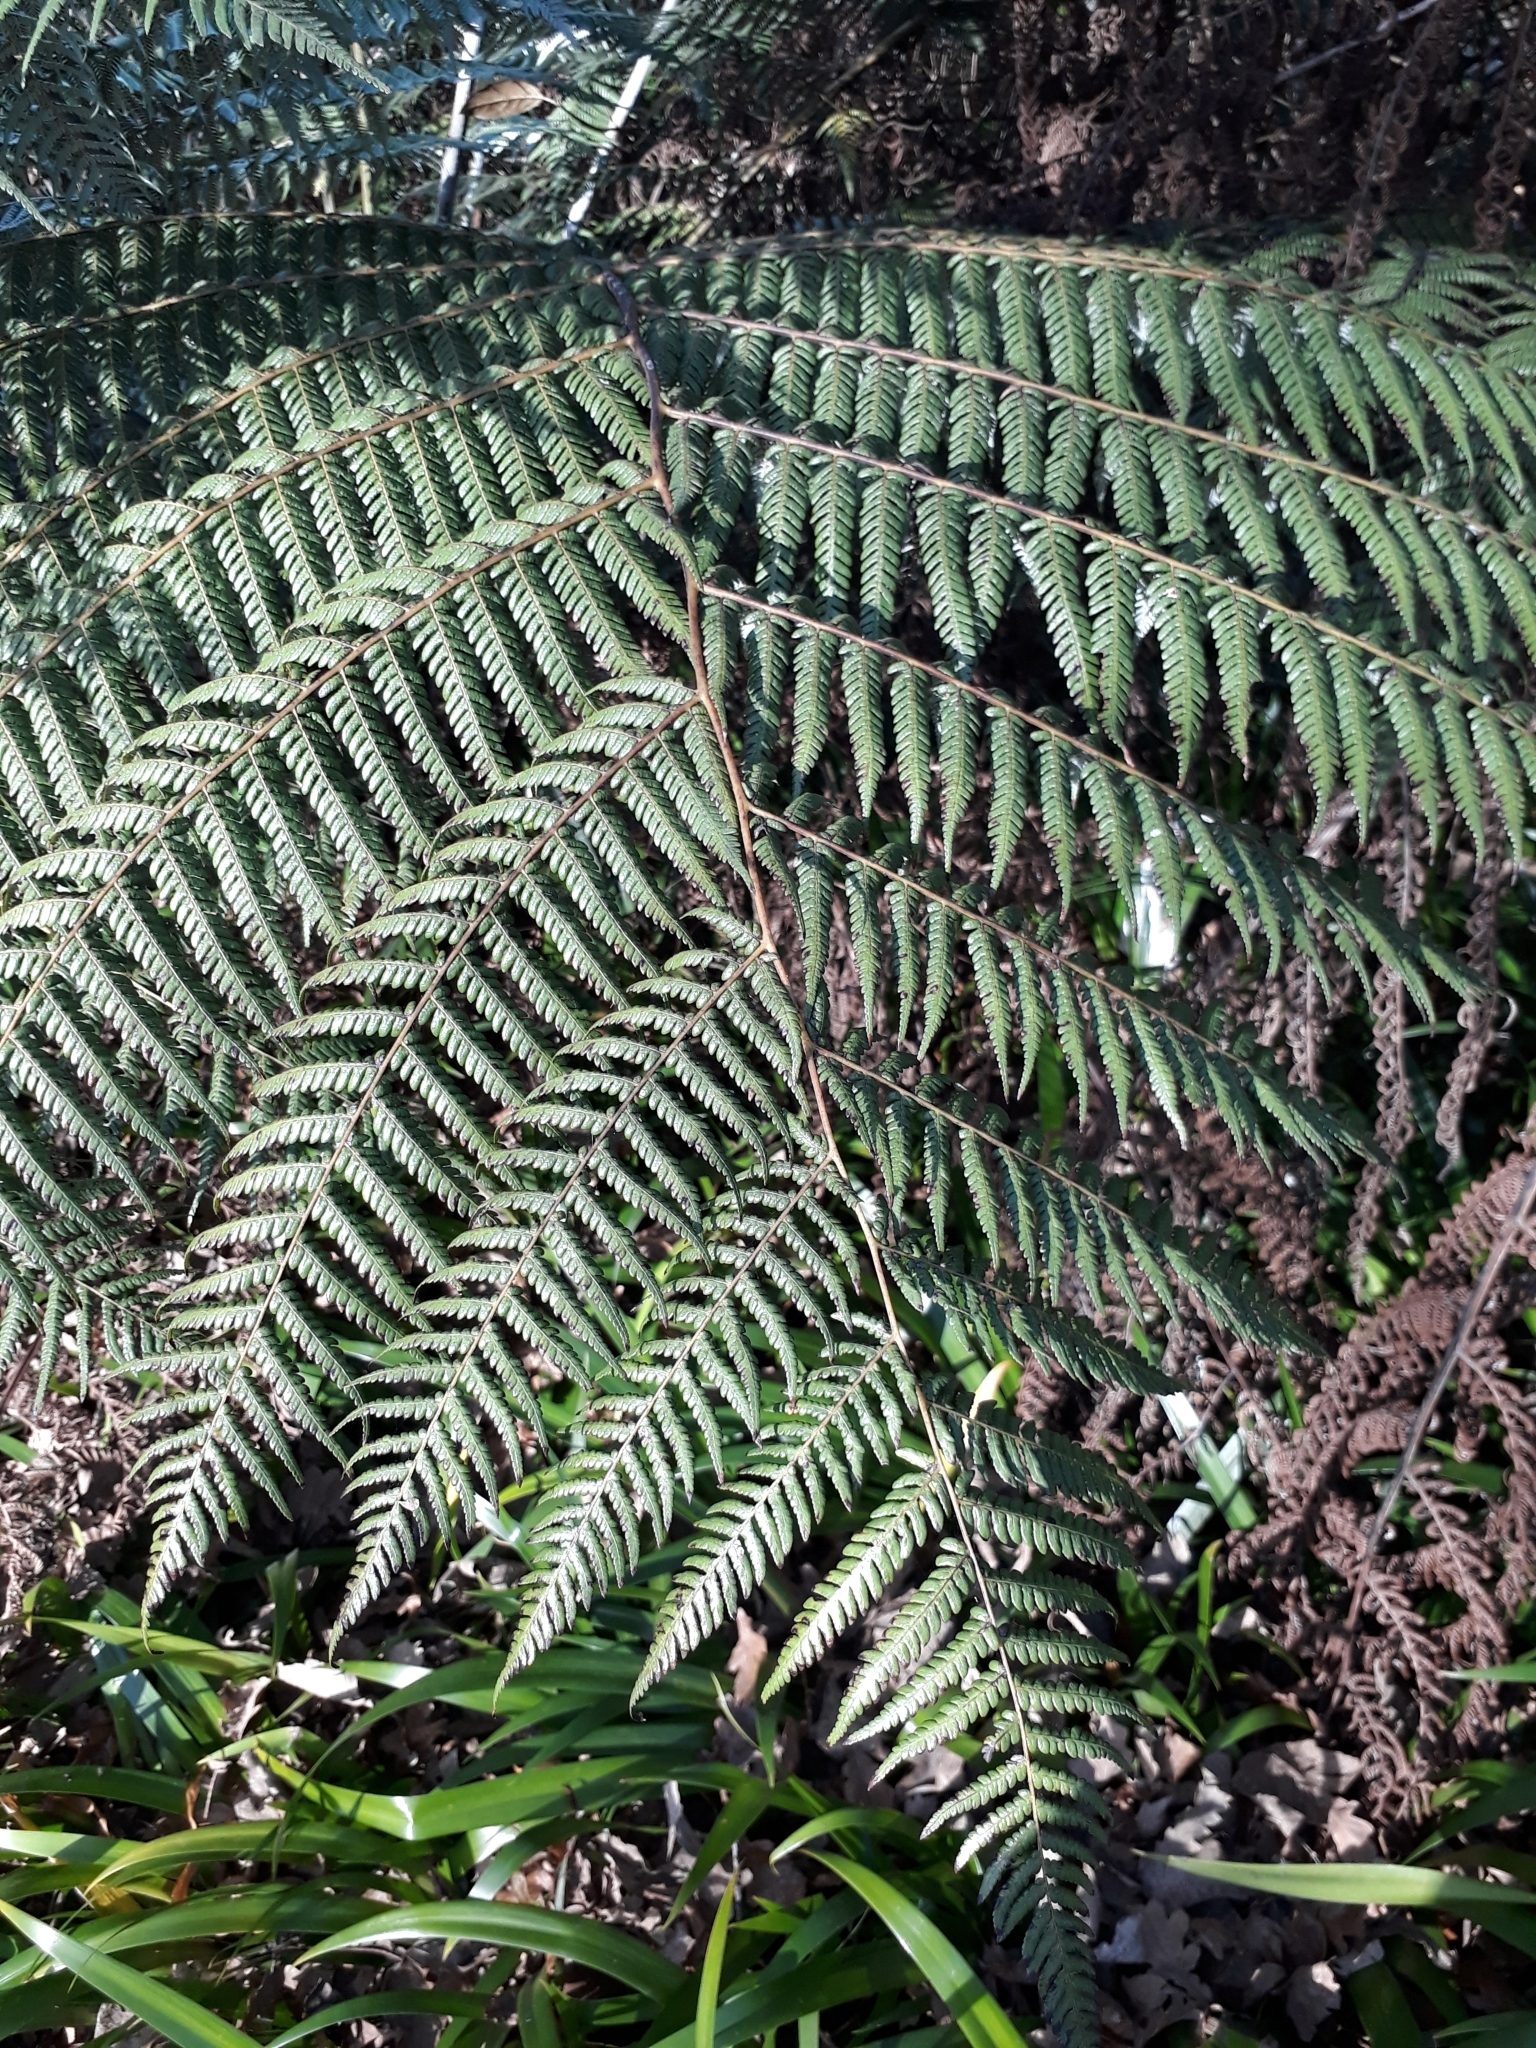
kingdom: Plantae
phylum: Tracheophyta
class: Polypodiopsida
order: Cyatheales
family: Cyatheaceae
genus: Alsophila
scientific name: Alsophila dealbata
